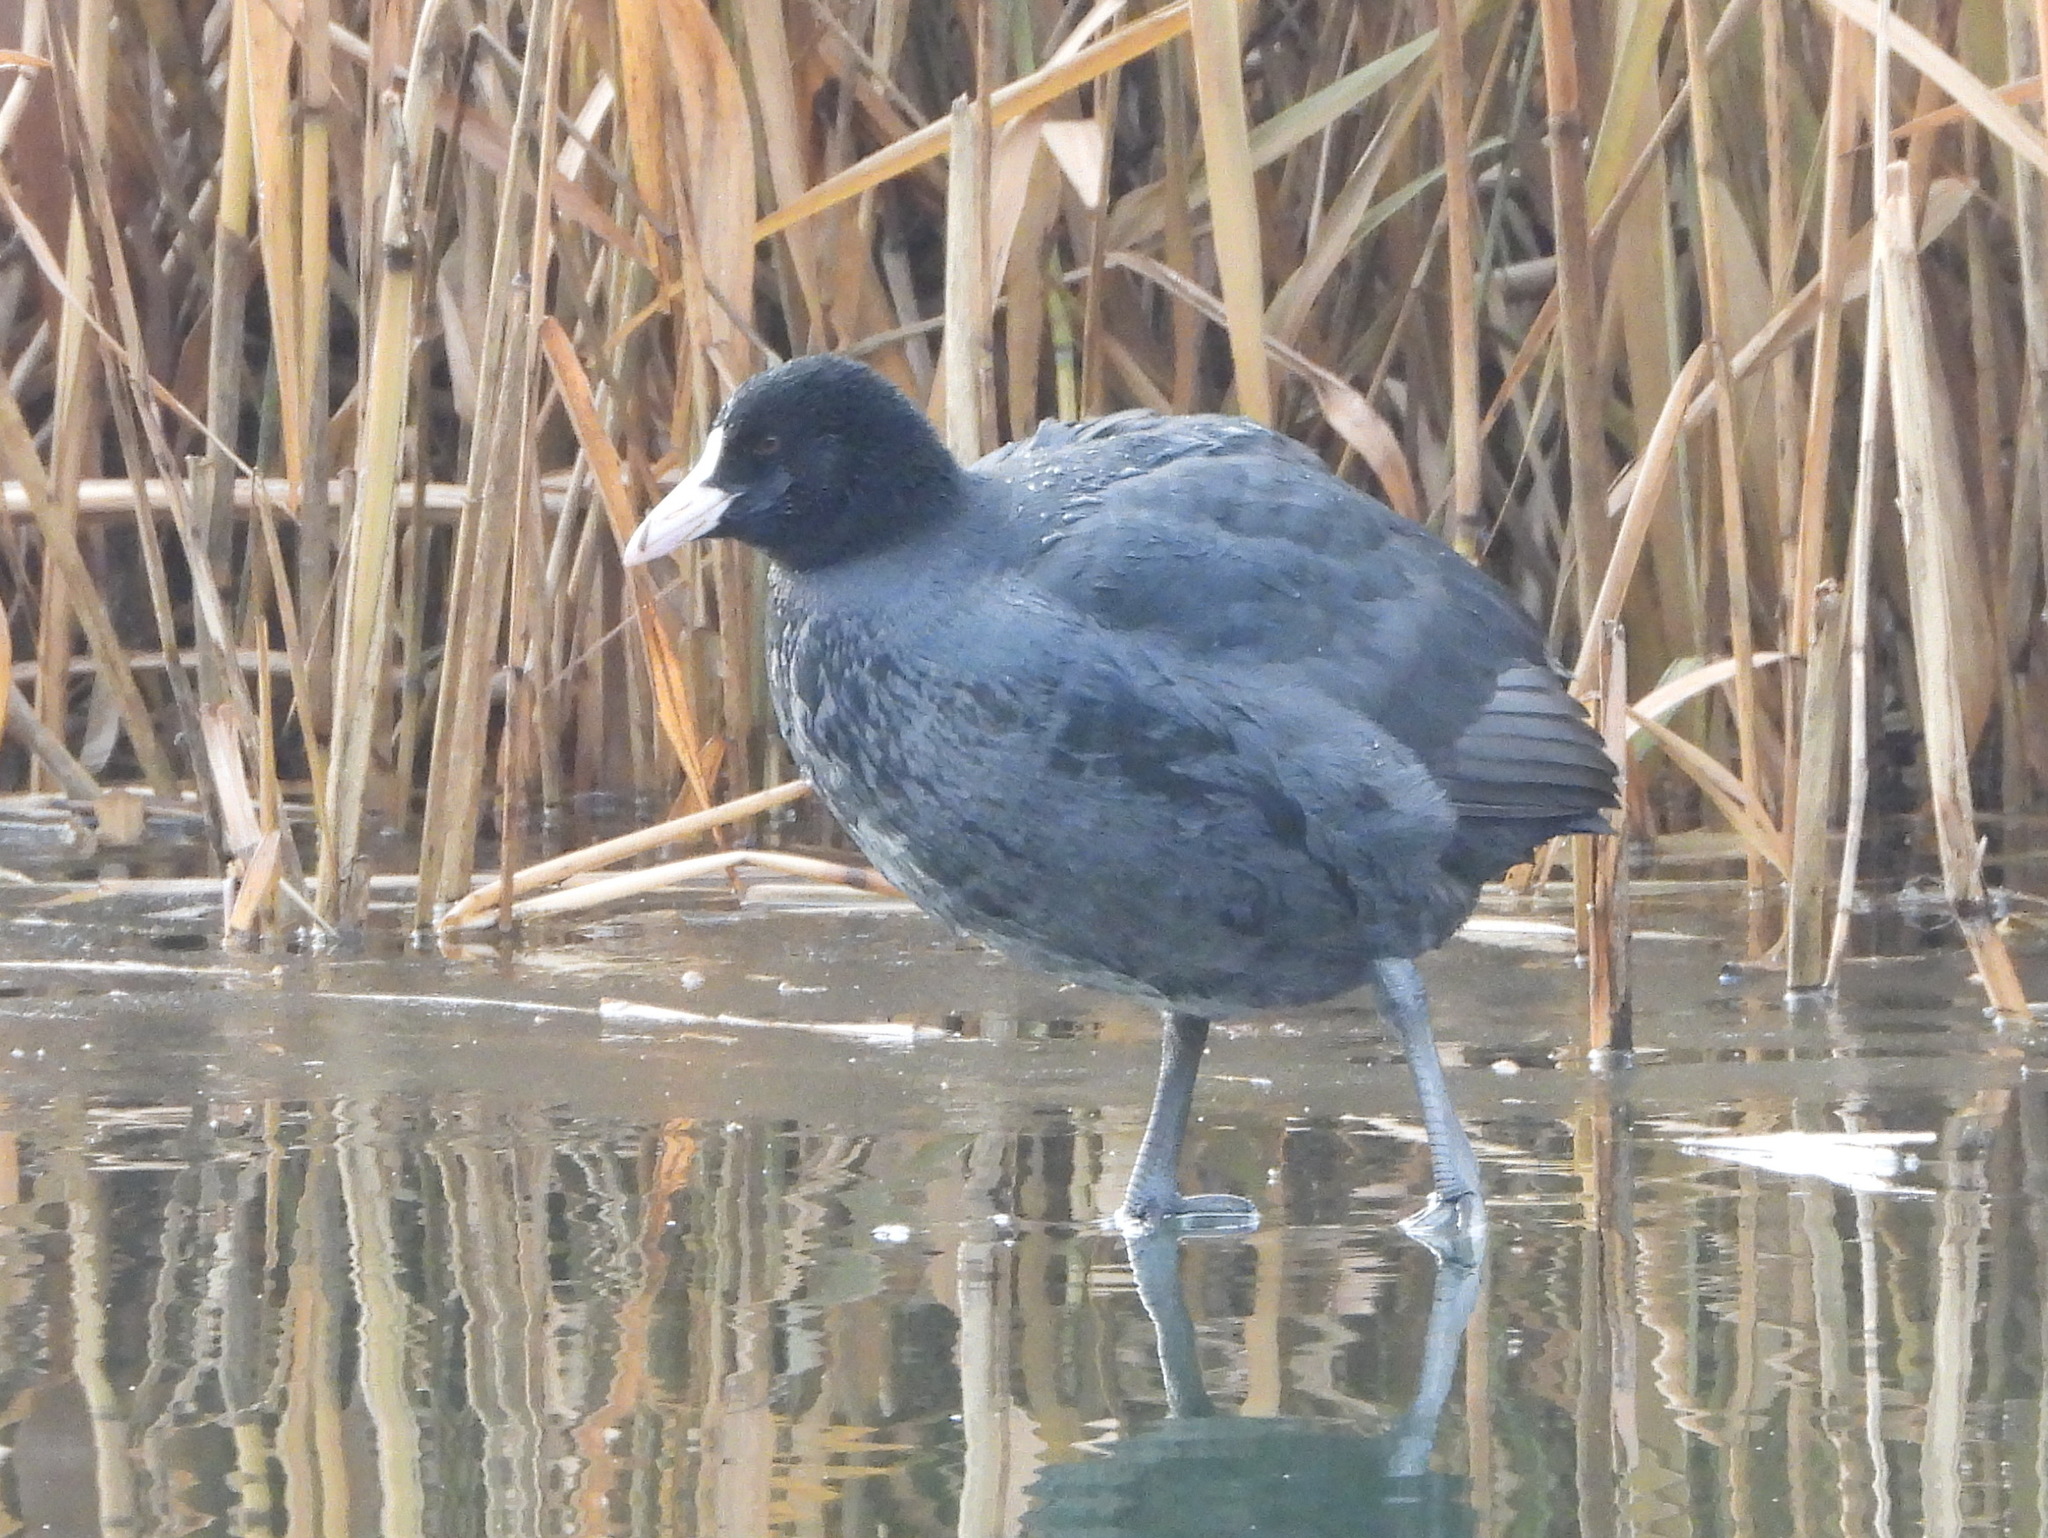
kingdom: Animalia
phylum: Chordata
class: Aves
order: Gruiformes
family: Rallidae
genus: Fulica
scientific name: Fulica atra
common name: Eurasian coot
